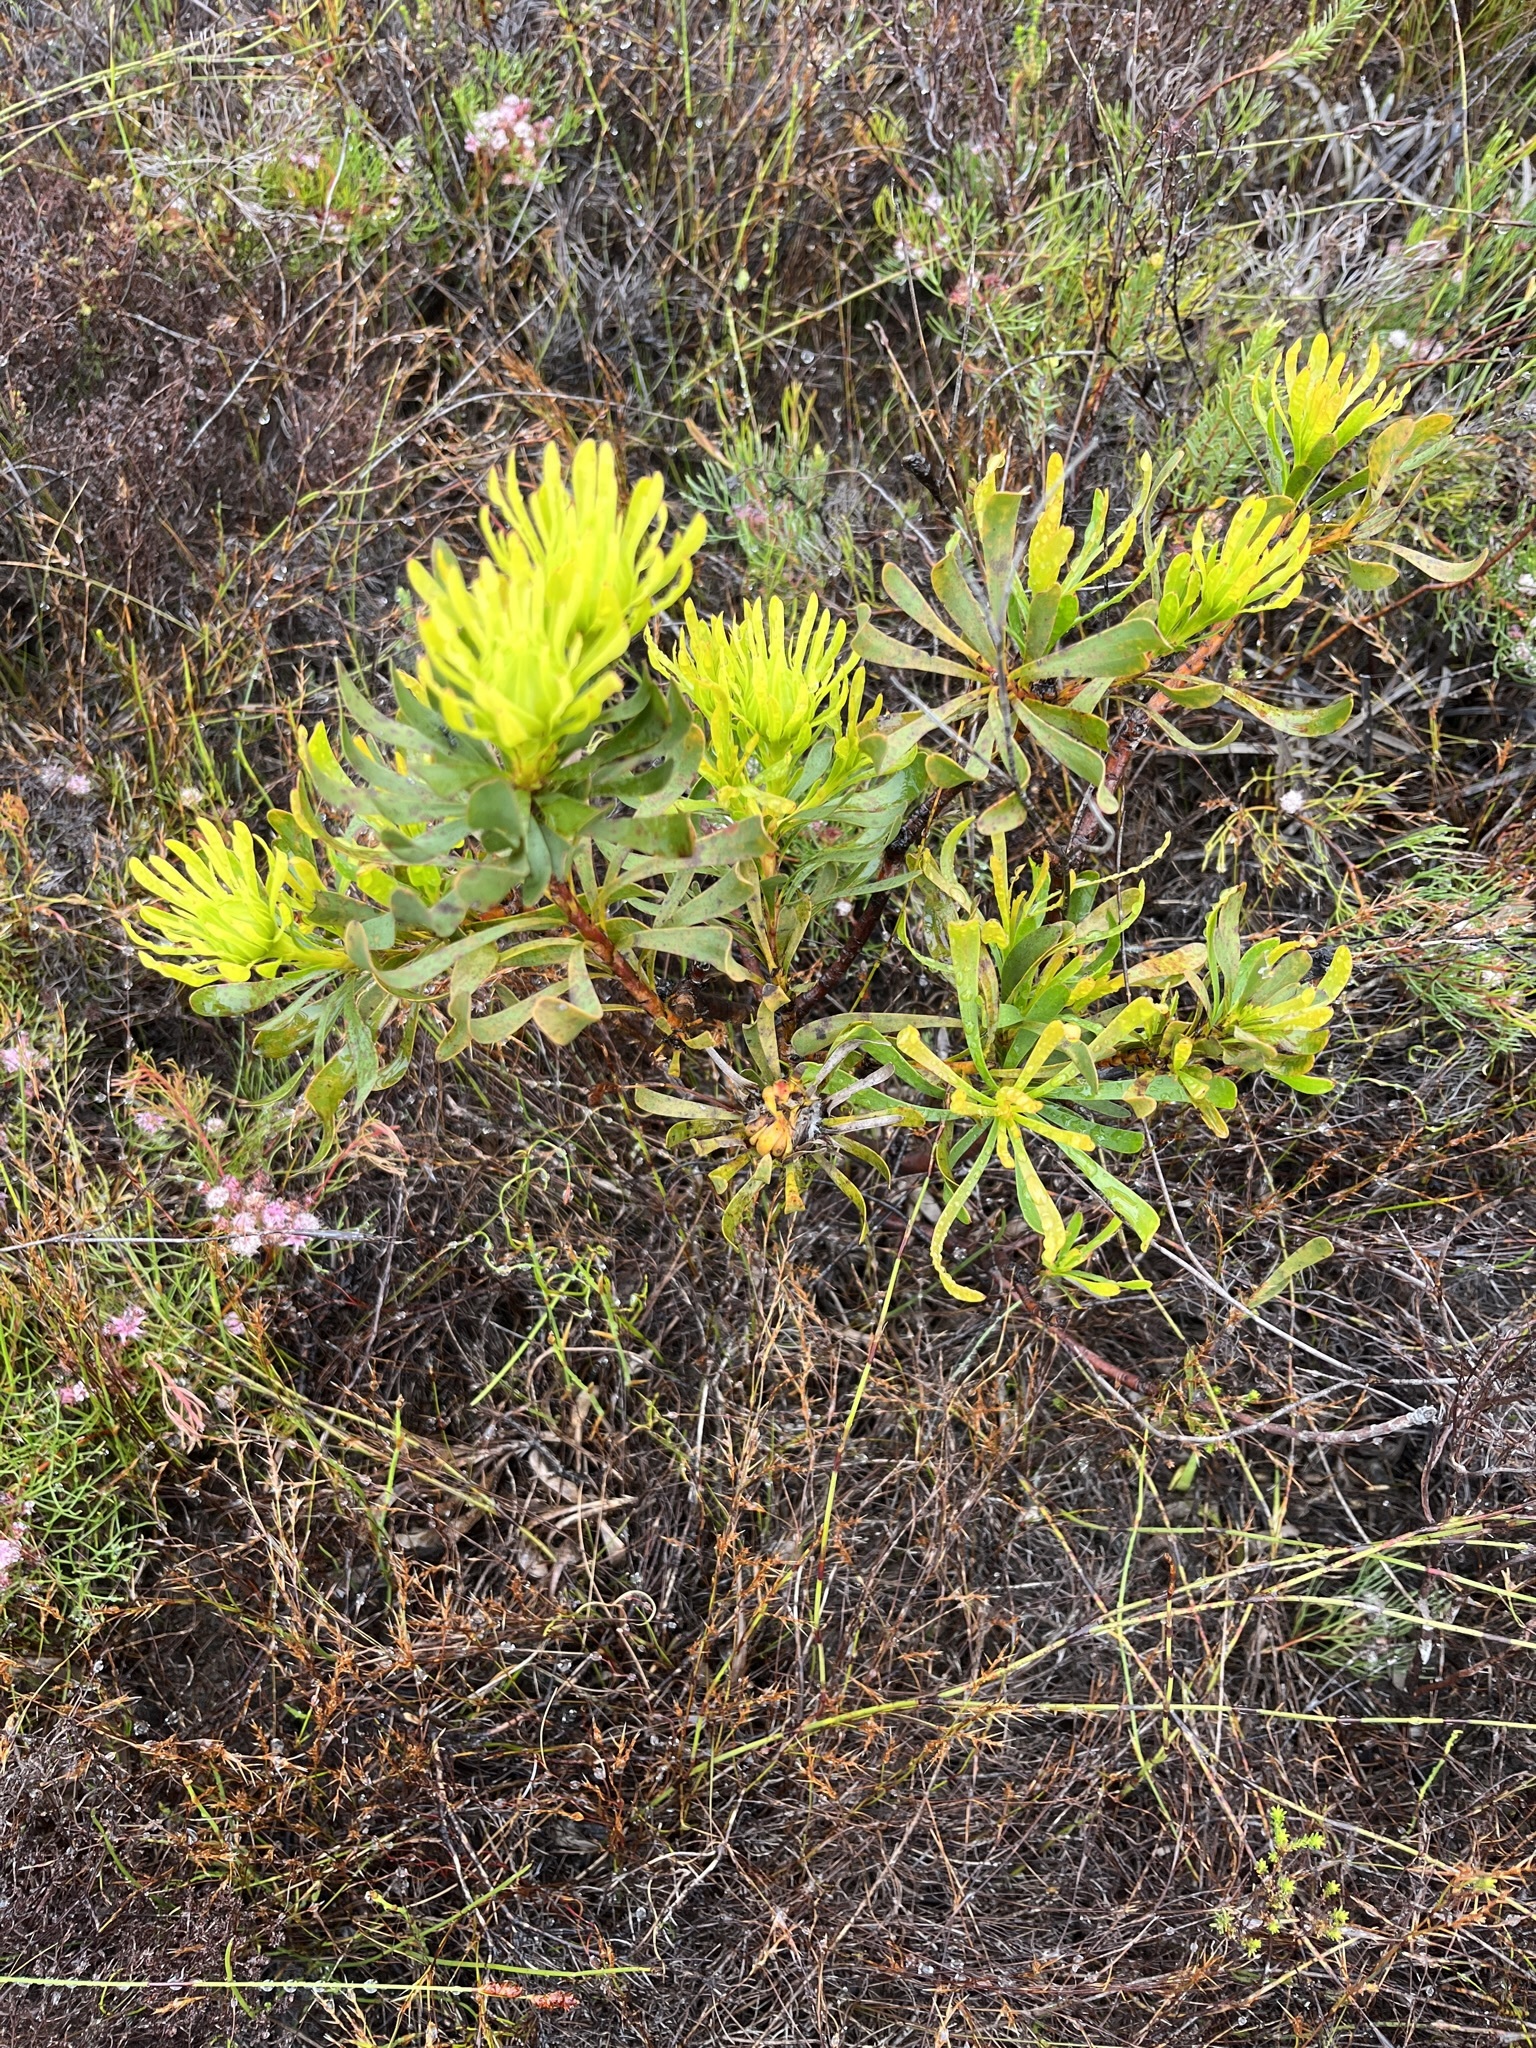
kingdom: Plantae
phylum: Tracheophyta
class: Magnoliopsida
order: Proteales
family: Proteaceae
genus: Aulax
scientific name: Aulax umbellata
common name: Broad-leaf featherbush
